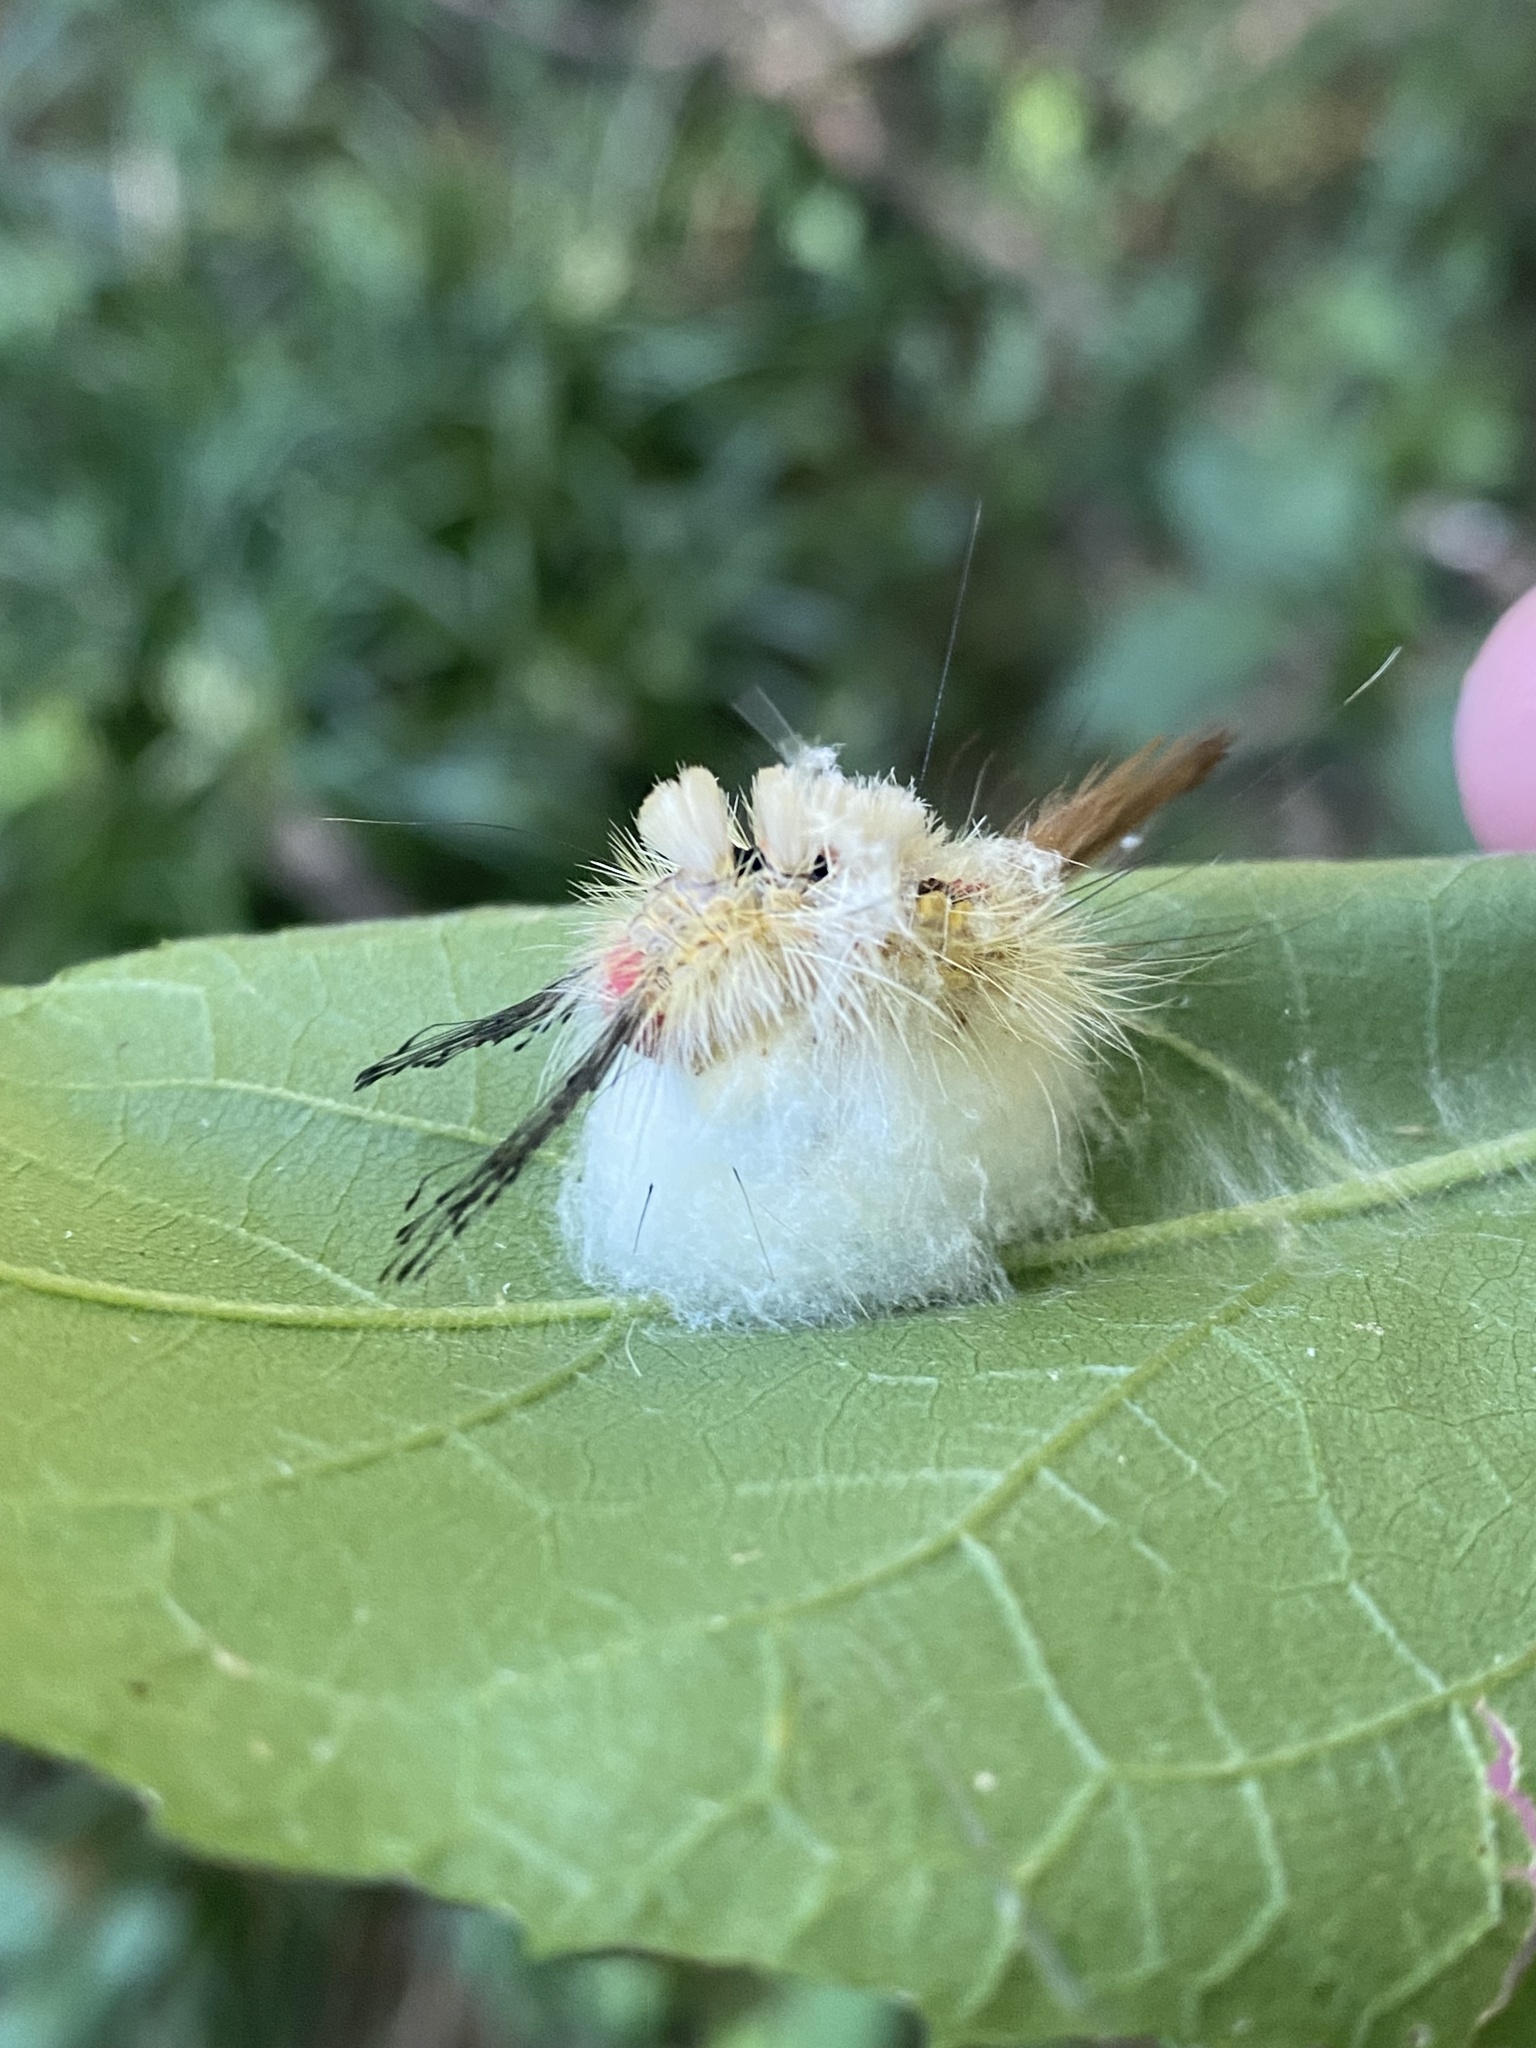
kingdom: Animalia
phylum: Arthropoda
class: Insecta
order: Lepidoptera
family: Erebidae
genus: Orgyia
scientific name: Orgyia leucostigma
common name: White-marked tussock moth
